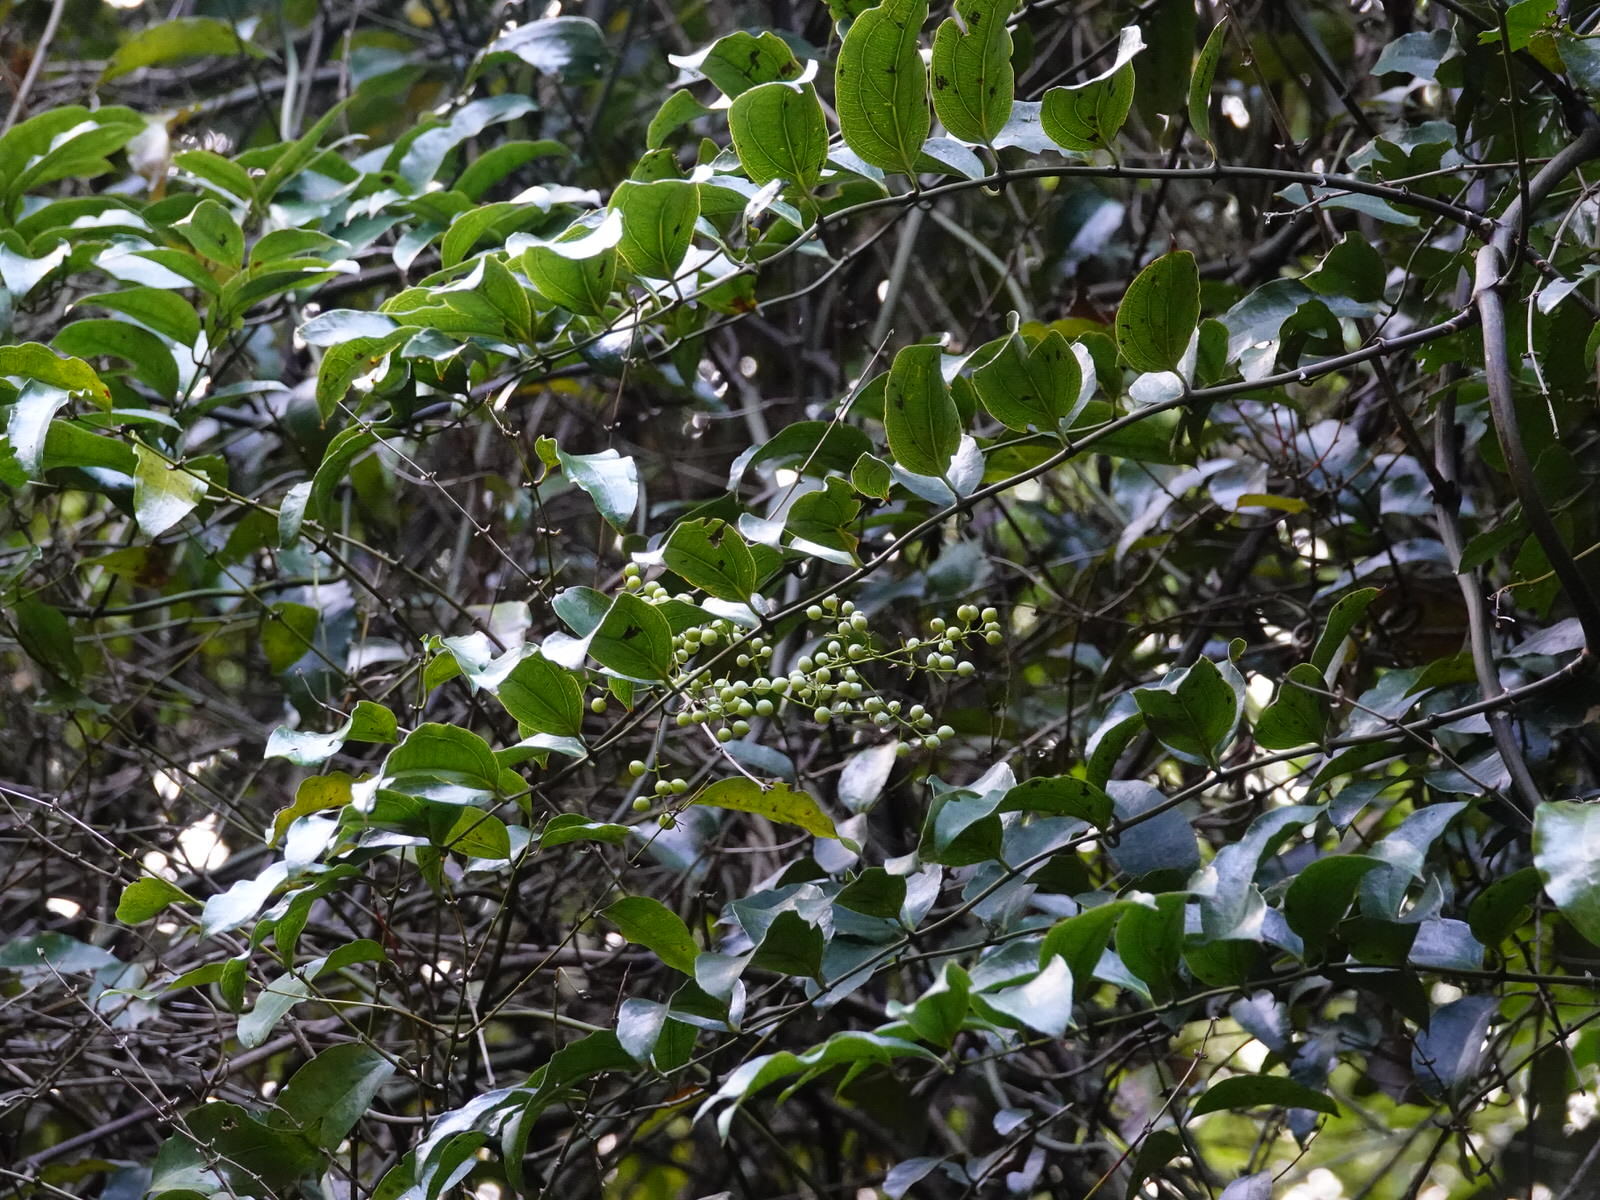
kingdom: Plantae
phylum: Tracheophyta
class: Liliopsida
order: Liliales
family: Ripogonaceae
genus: Ripogonum
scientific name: Ripogonum scandens
